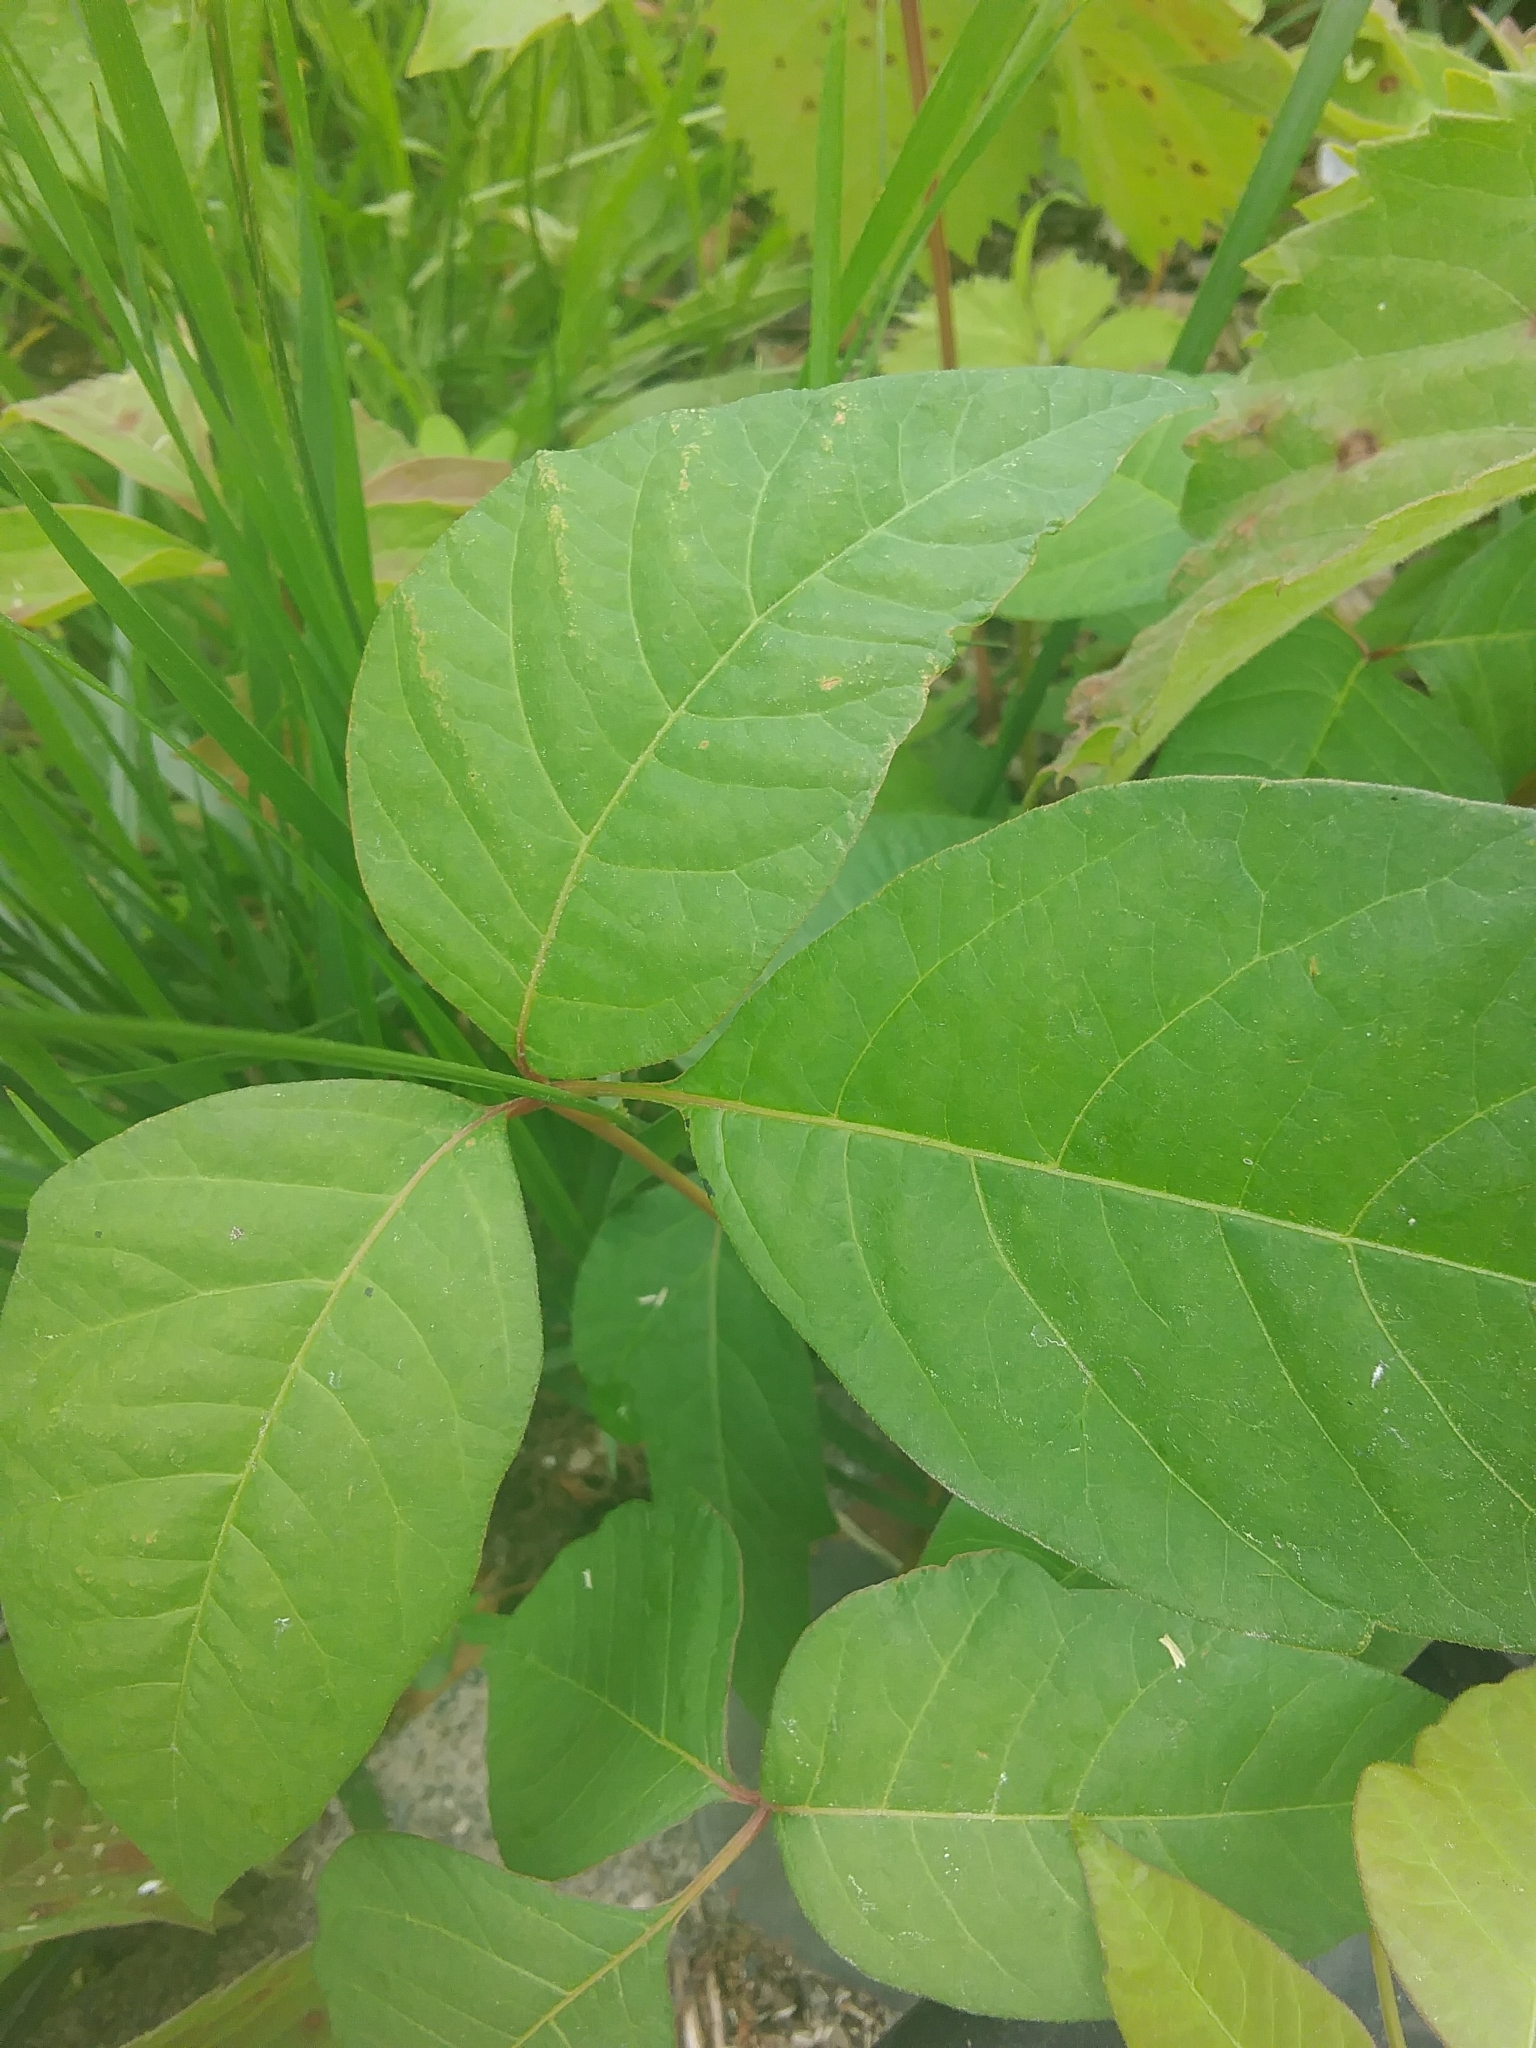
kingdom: Plantae
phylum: Tracheophyta
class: Magnoliopsida
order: Sapindales
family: Anacardiaceae
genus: Toxicodendron
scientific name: Toxicodendron radicans
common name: Poison ivy
